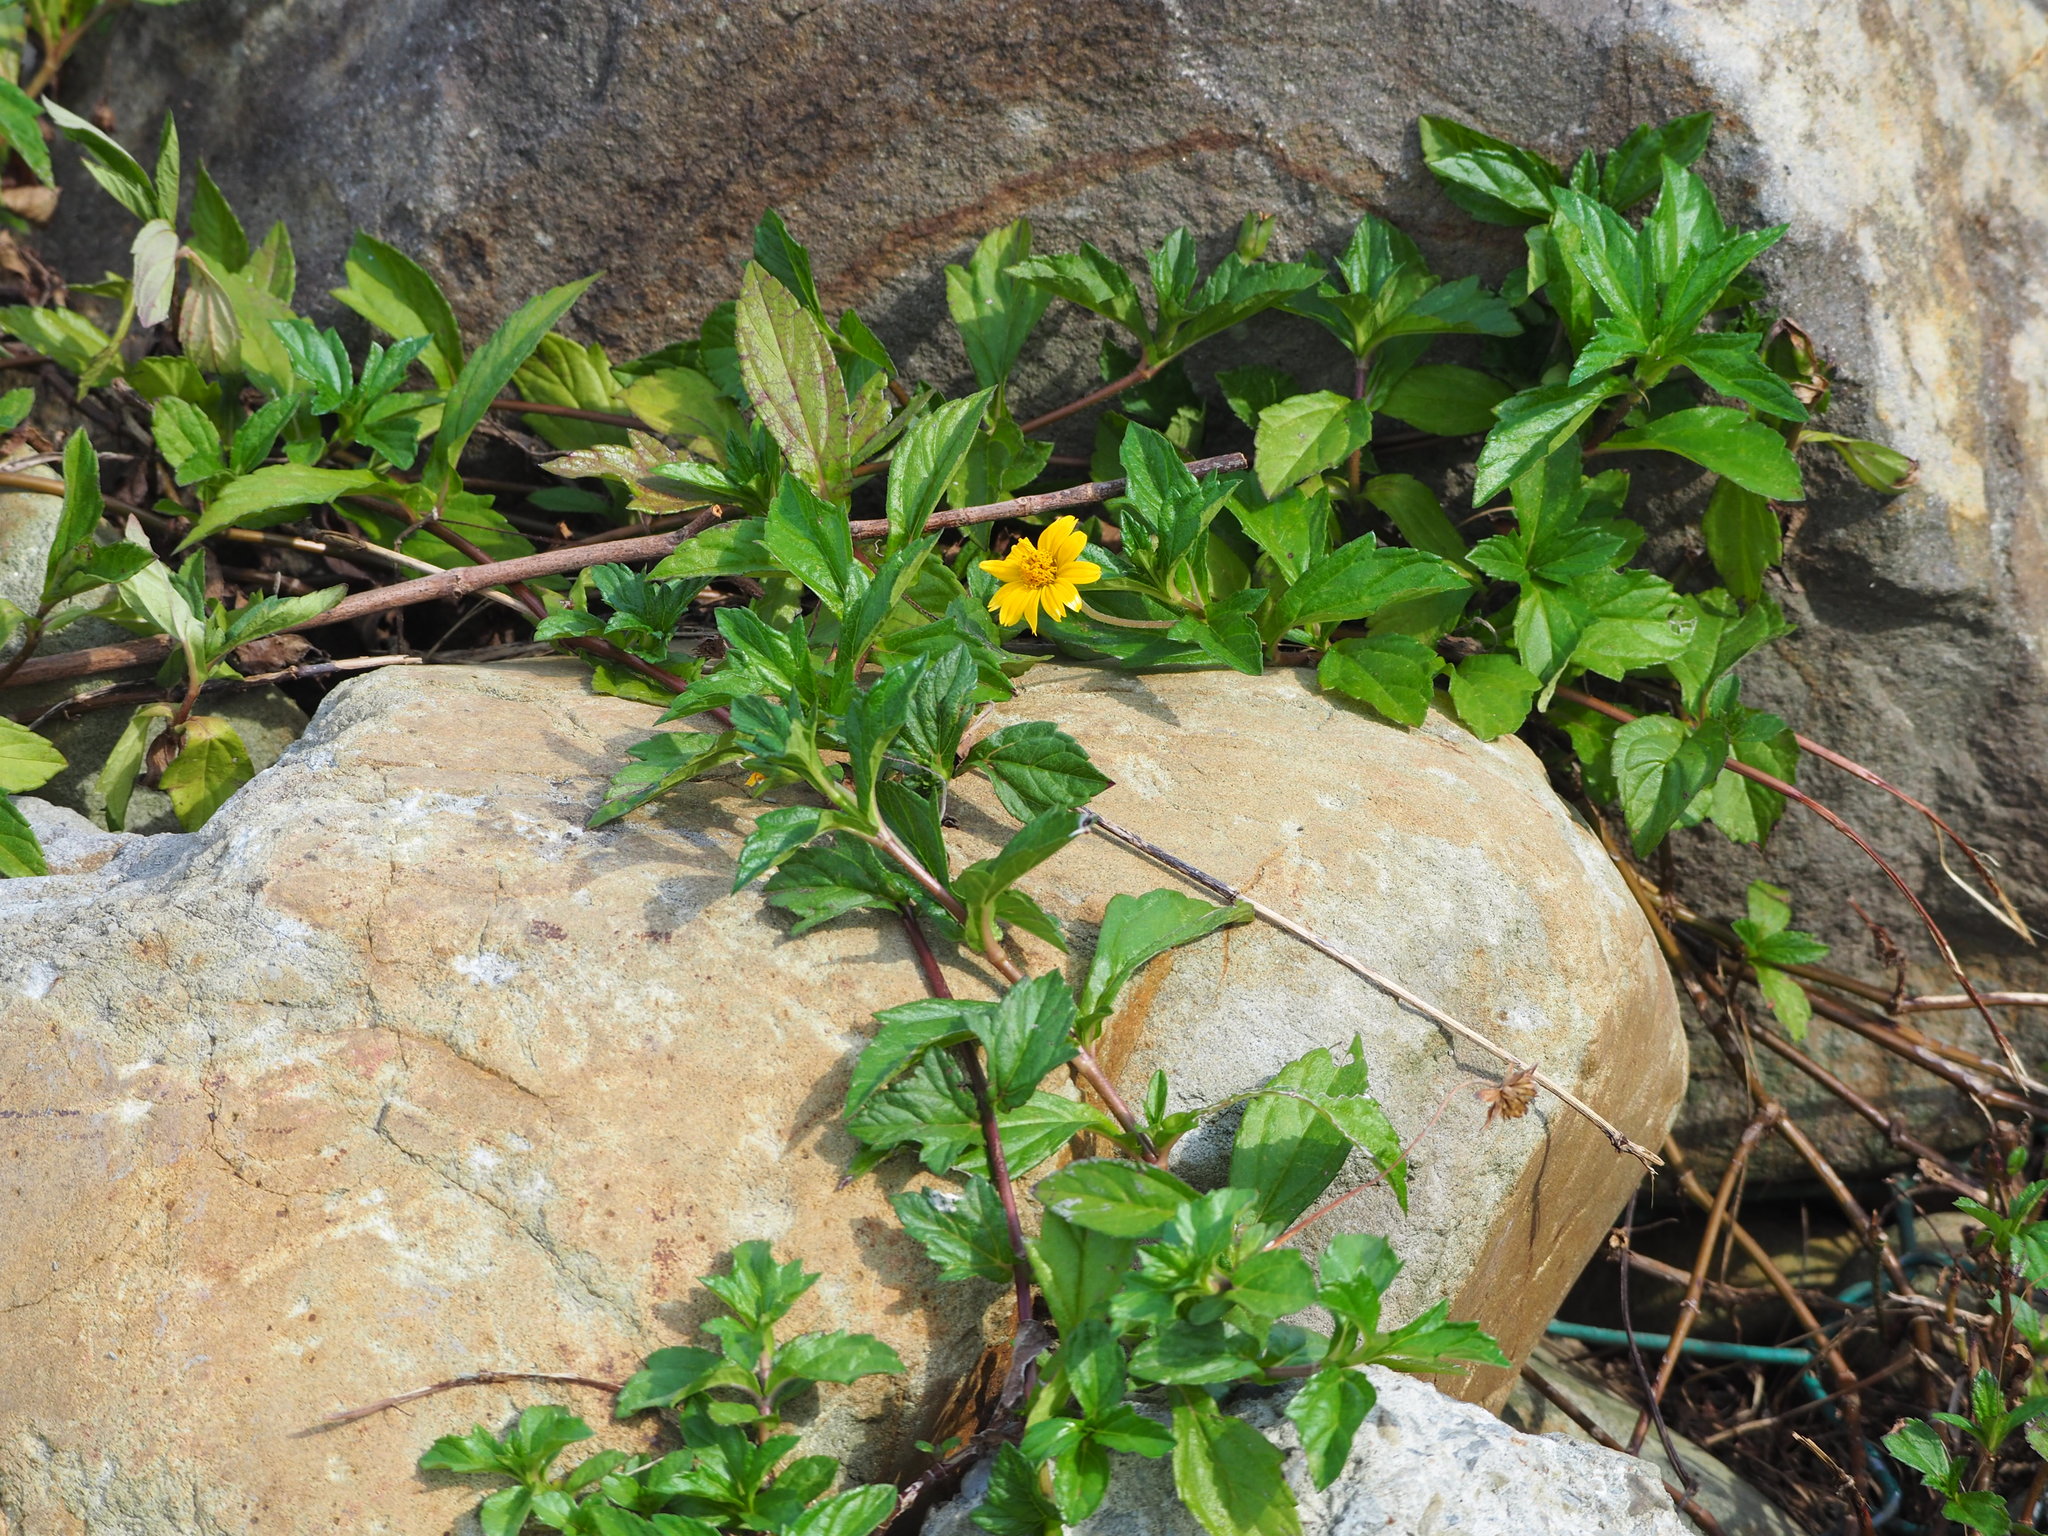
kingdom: Plantae
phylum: Tracheophyta
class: Magnoliopsida
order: Asterales
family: Asteraceae
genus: Sphagneticola
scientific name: Sphagneticola trilobata
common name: Bay biscayne creeping-oxeye
